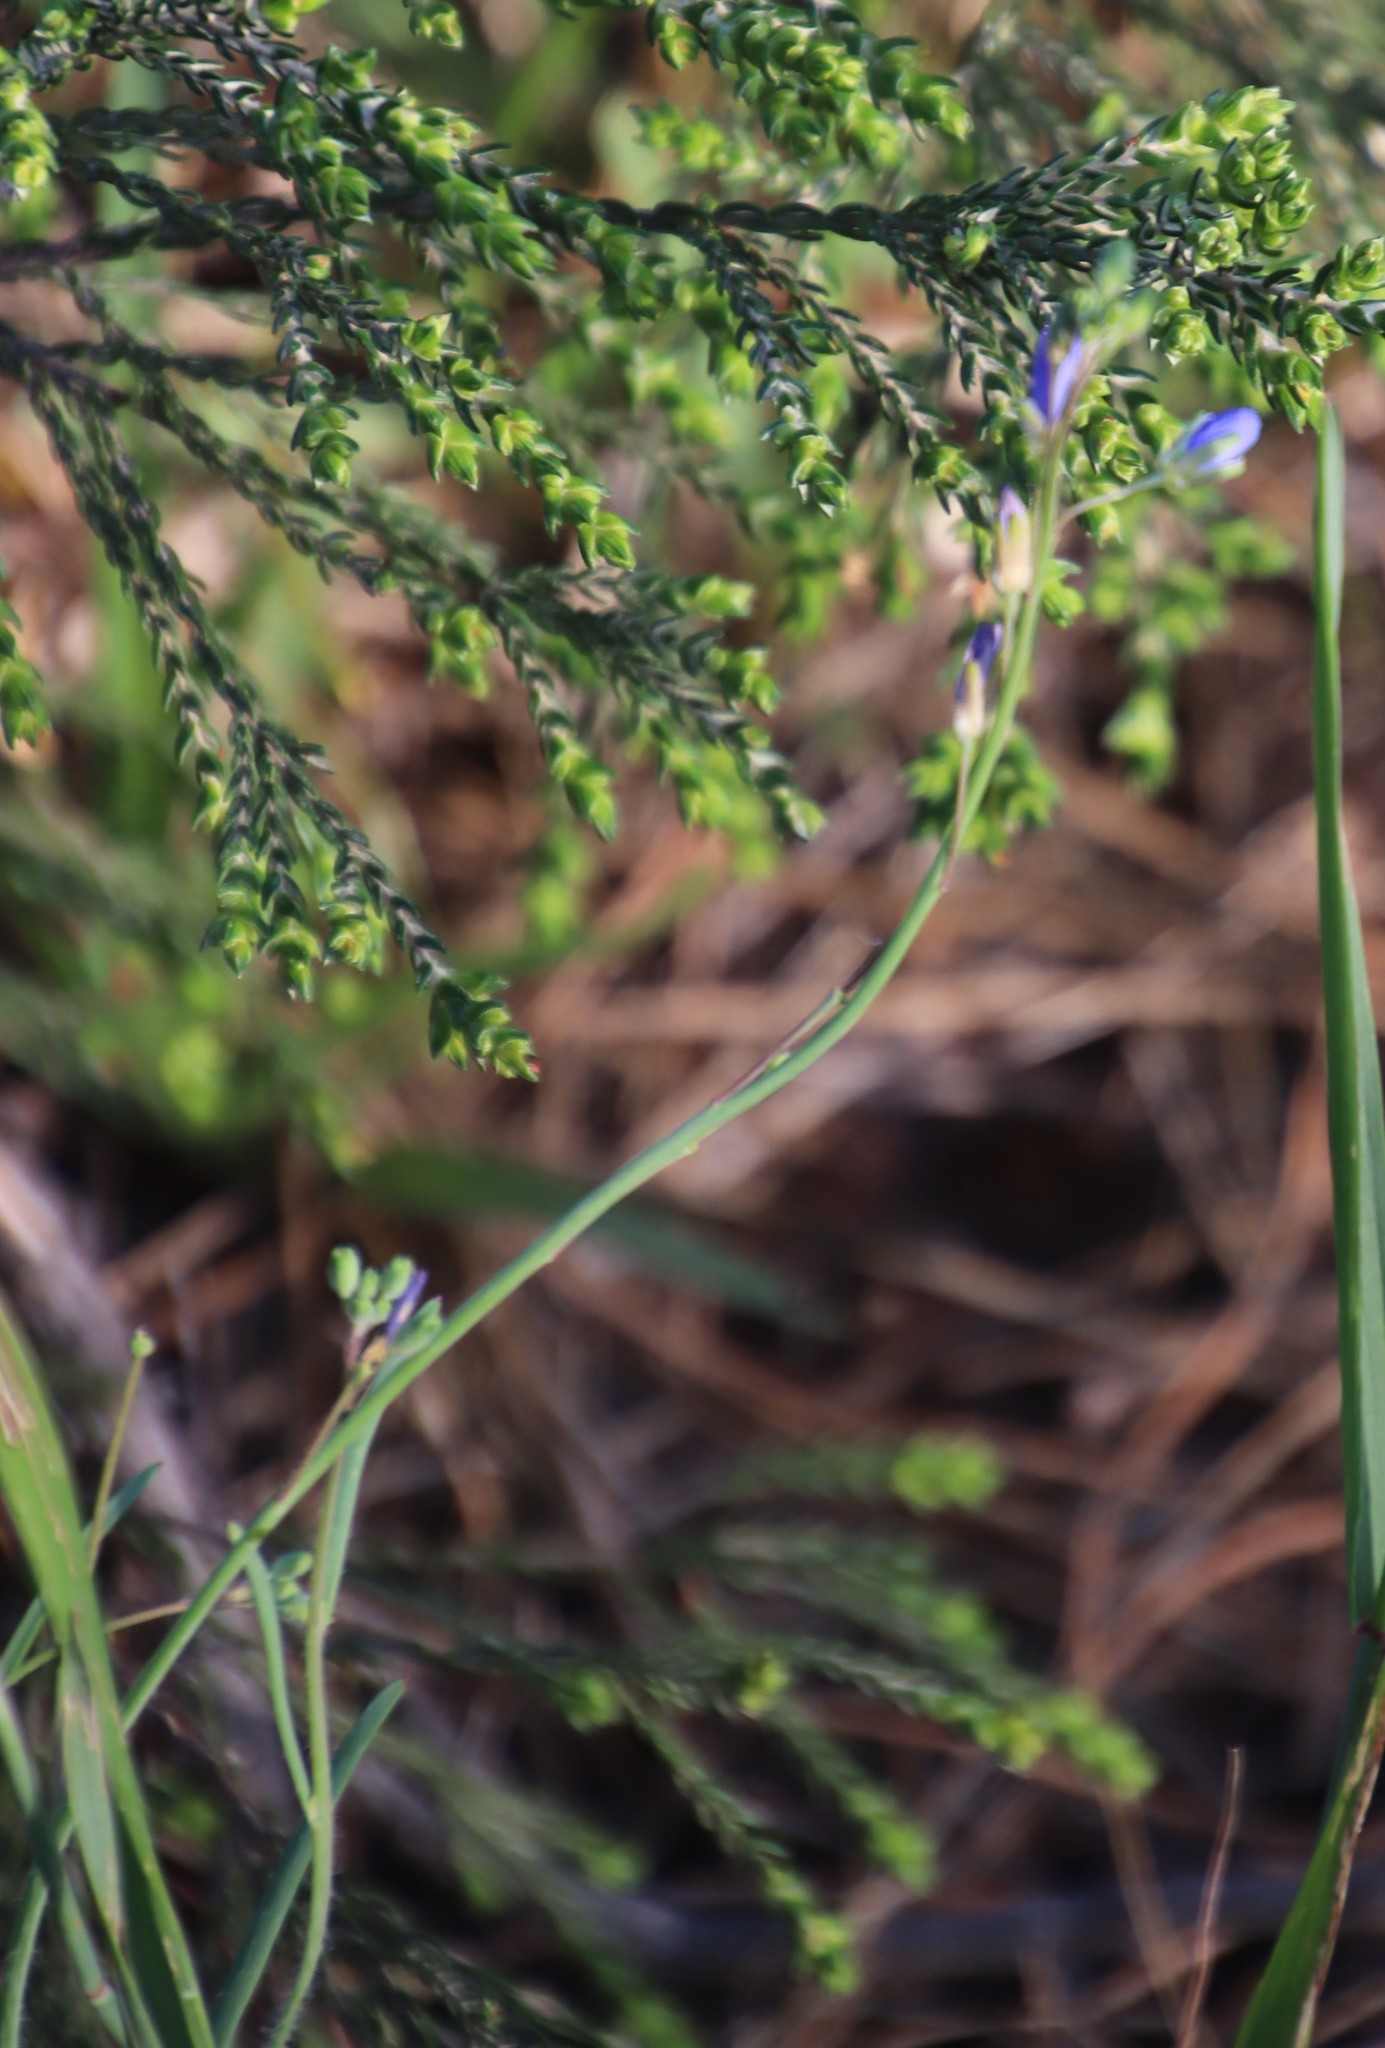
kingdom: Plantae
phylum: Tracheophyta
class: Magnoliopsida
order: Brassicales
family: Brassicaceae
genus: Heliophila
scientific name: Heliophila africana
